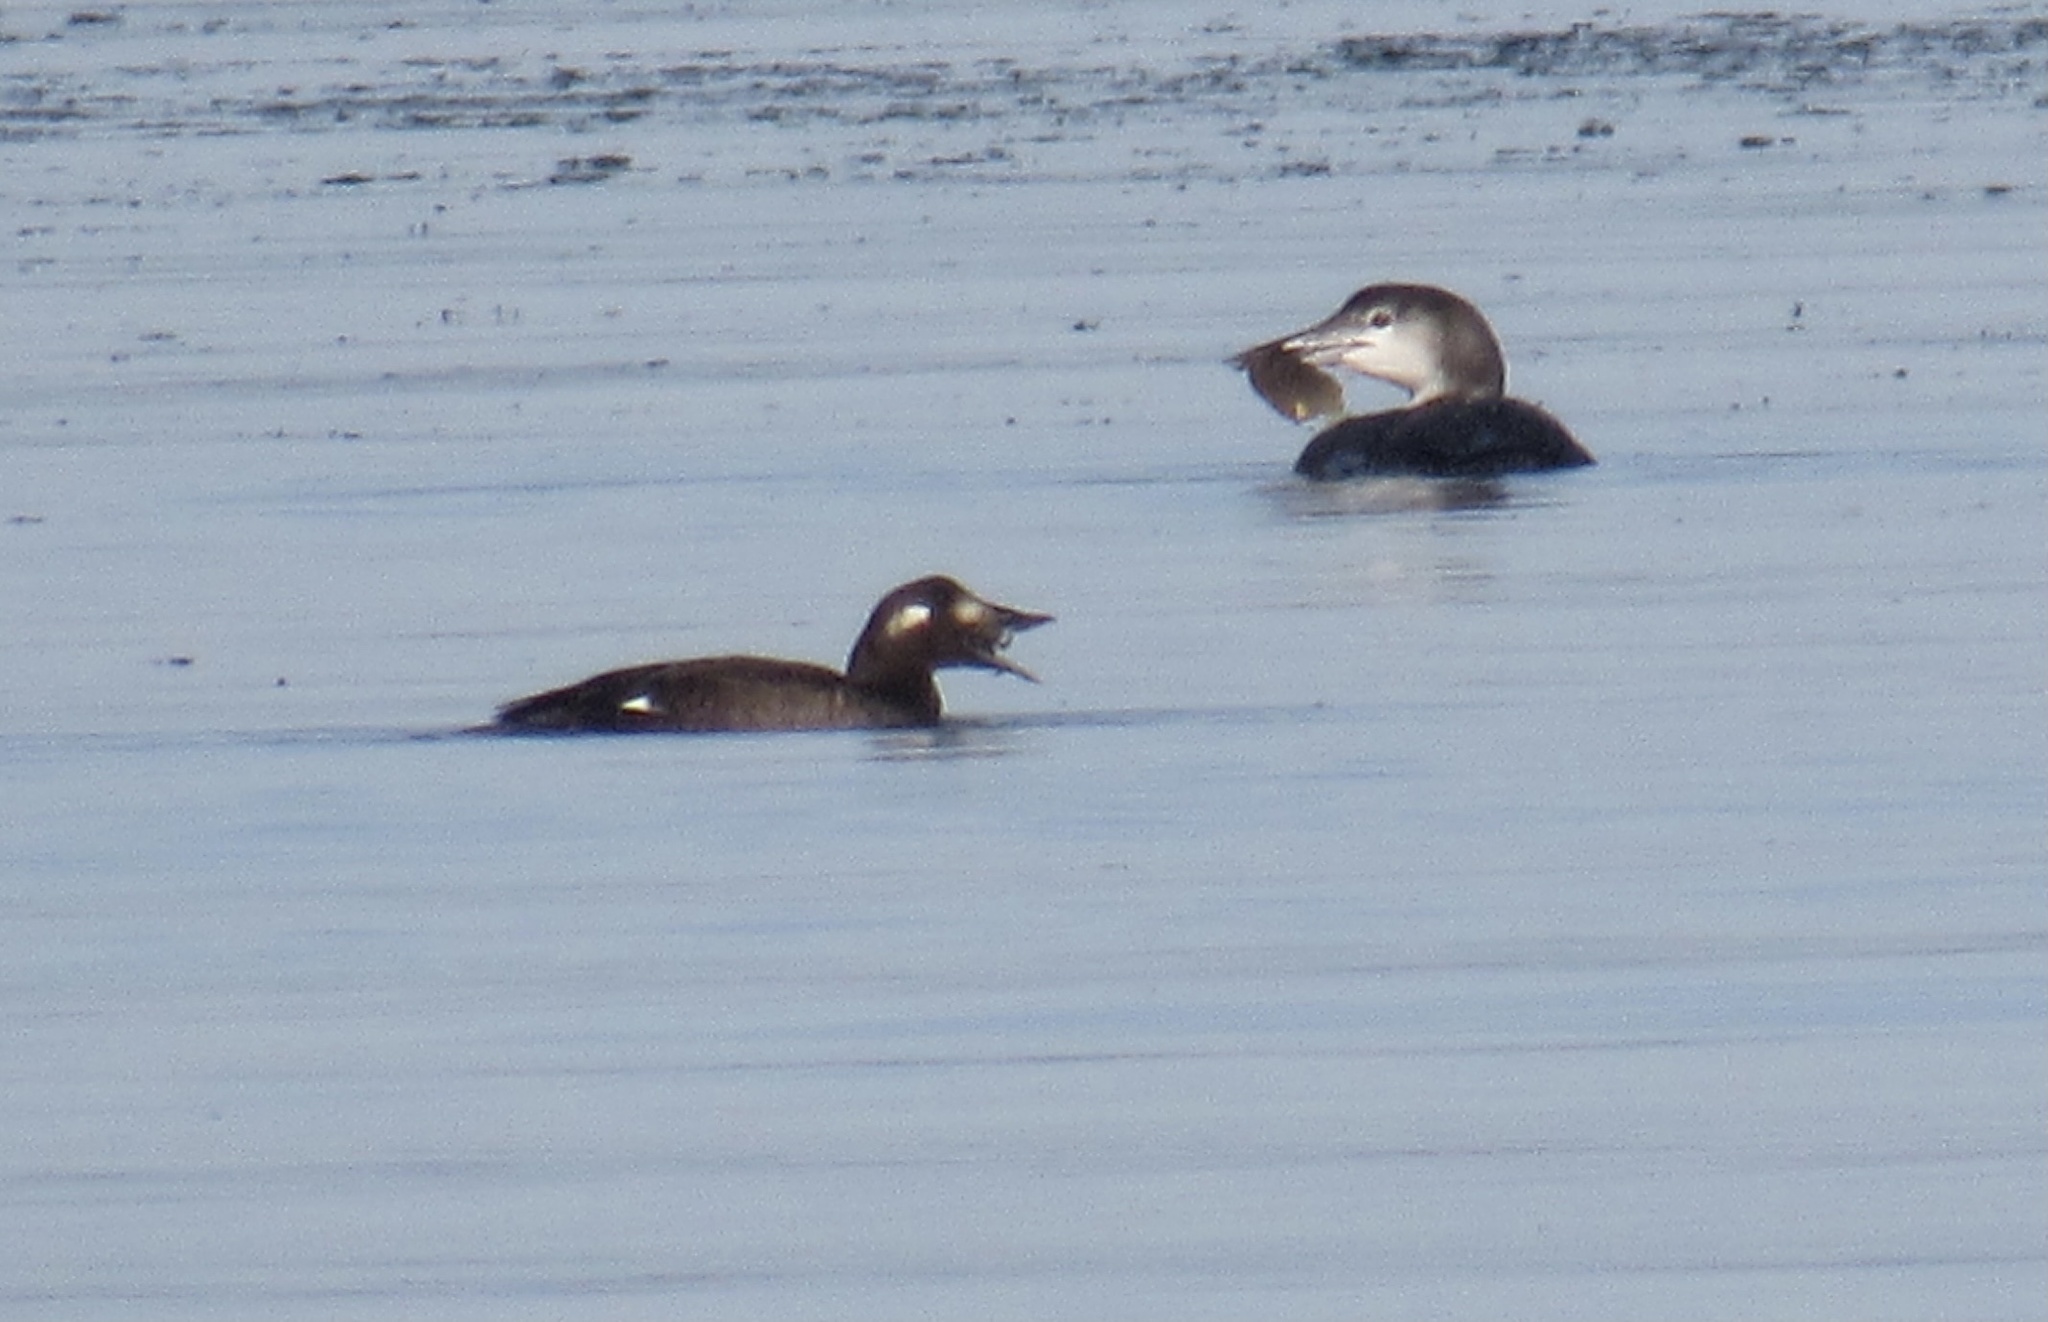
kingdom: Animalia
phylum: Chordata
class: Aves
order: Anseriformes
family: Anatidae
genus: Melanitta
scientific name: Melanitta deglandi
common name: White-winged scoter
